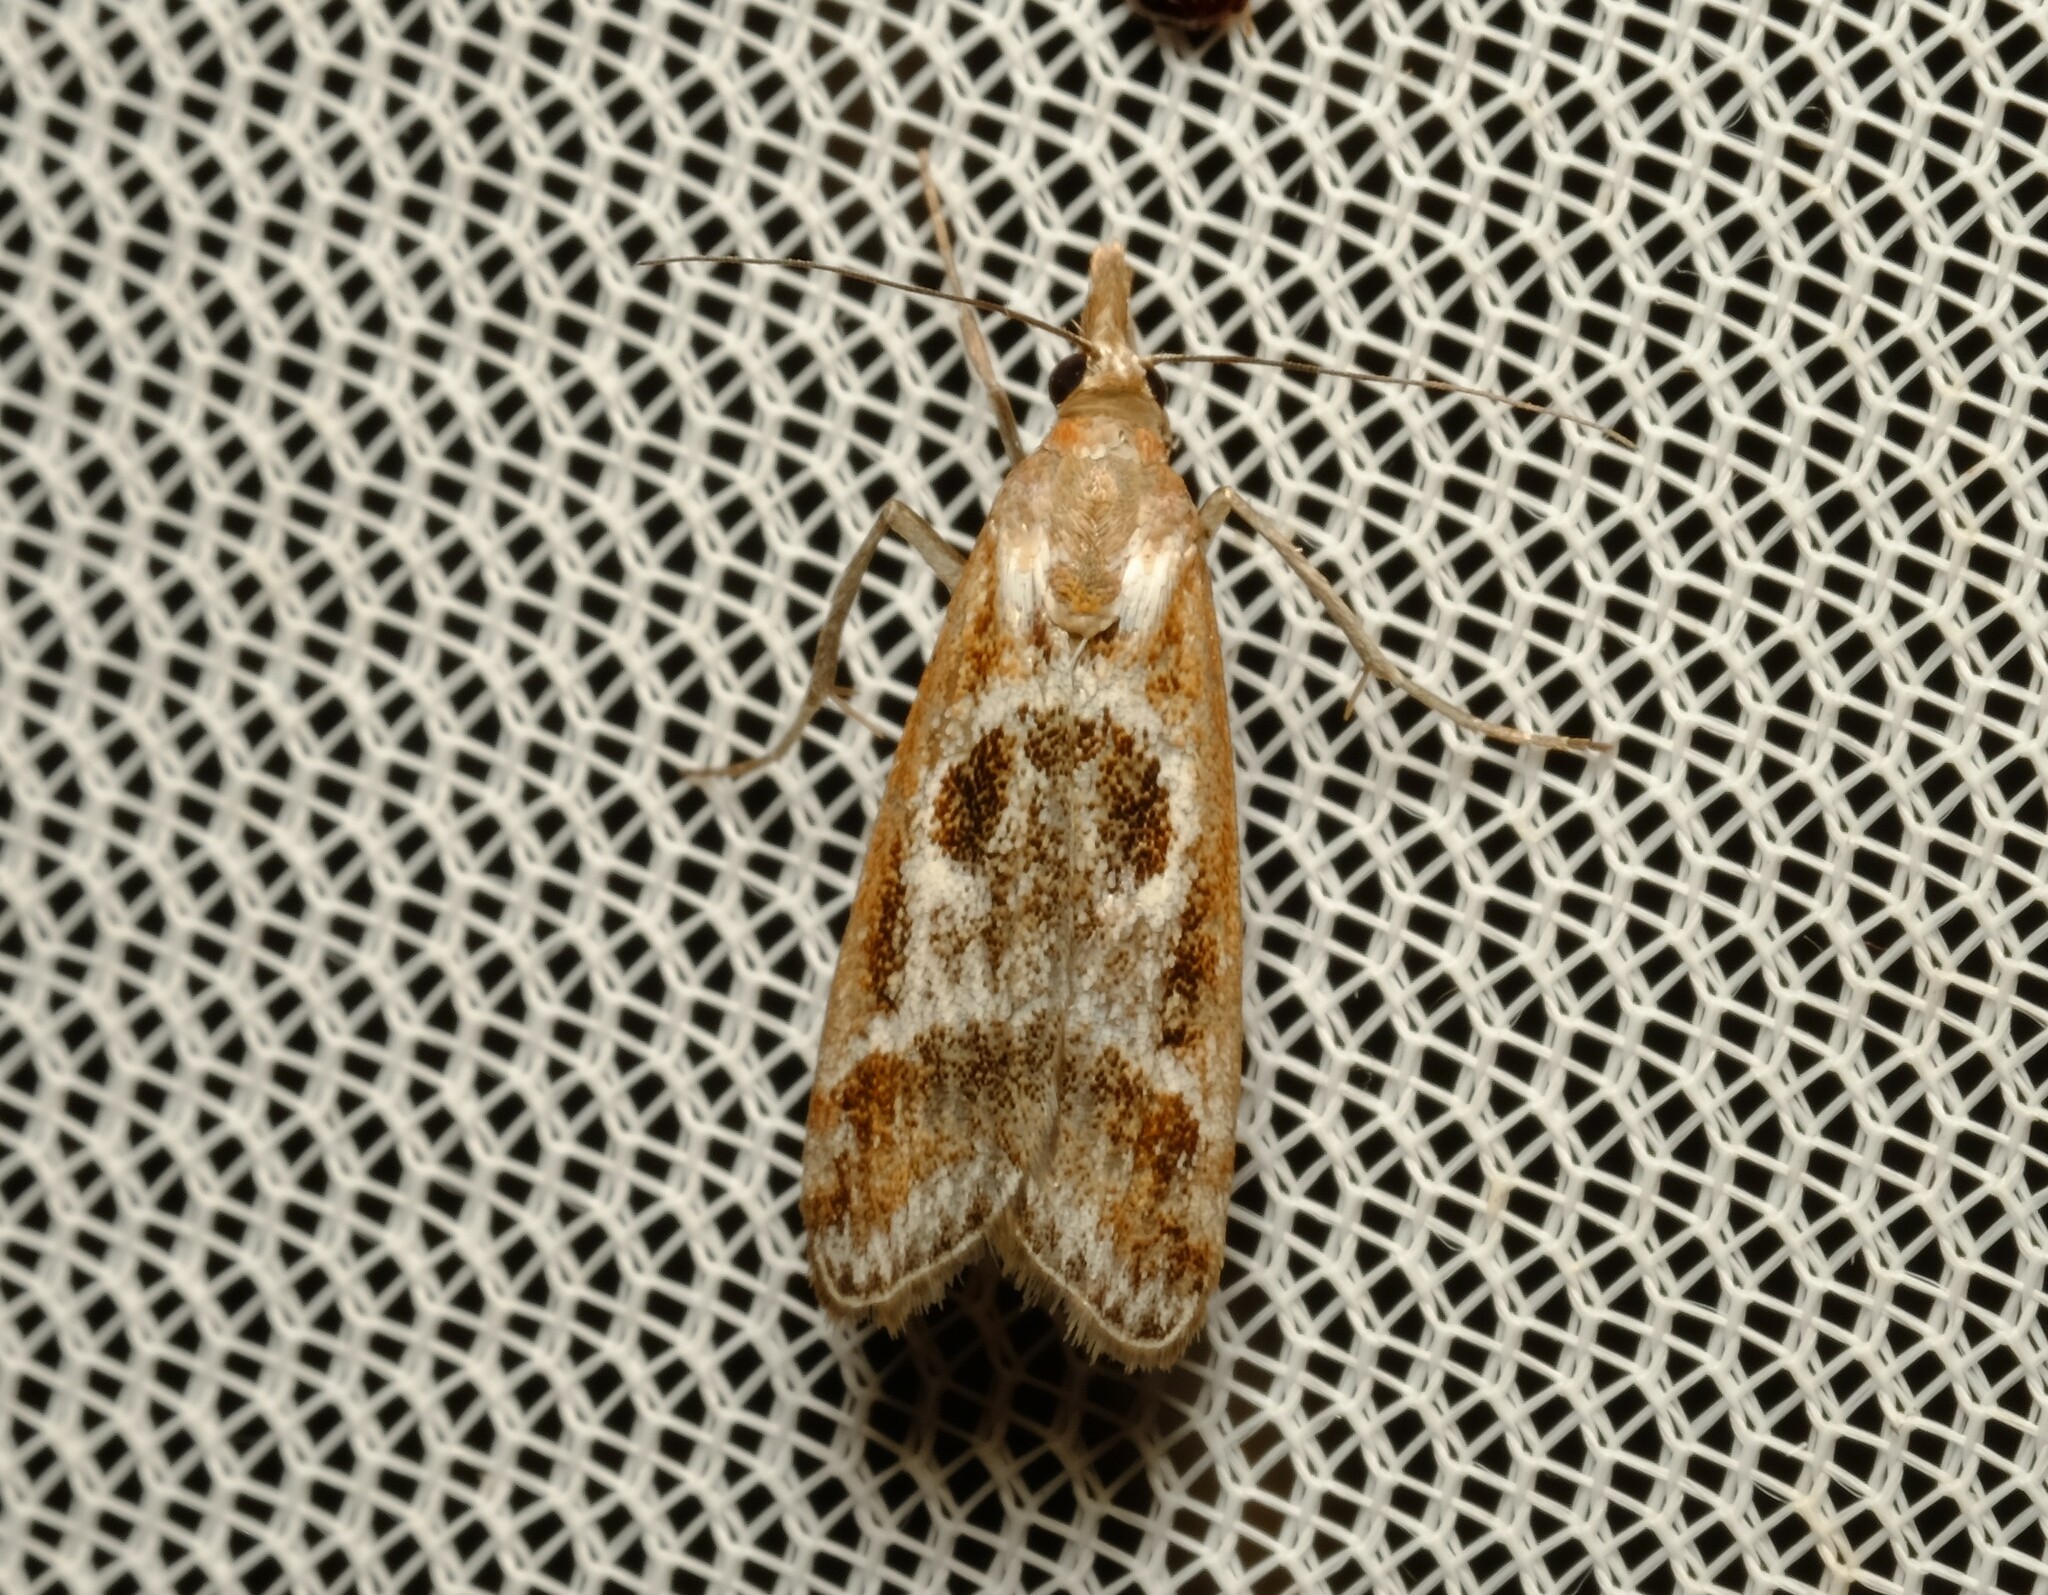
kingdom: Animalia
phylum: Arthropoda
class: Insecta
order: Lepidoptera
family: Crambidae
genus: Syntonarcha
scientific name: Syntonarcha iriastis
